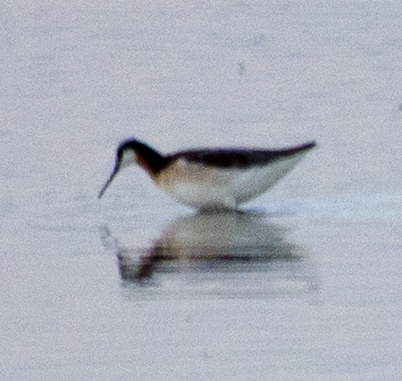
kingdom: Animalia
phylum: Chordata
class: Aves
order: Charadriiformes
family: Scolopacidae
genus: Phalaropus
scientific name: Phalaropus tricolor
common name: Wilson's phalarope
